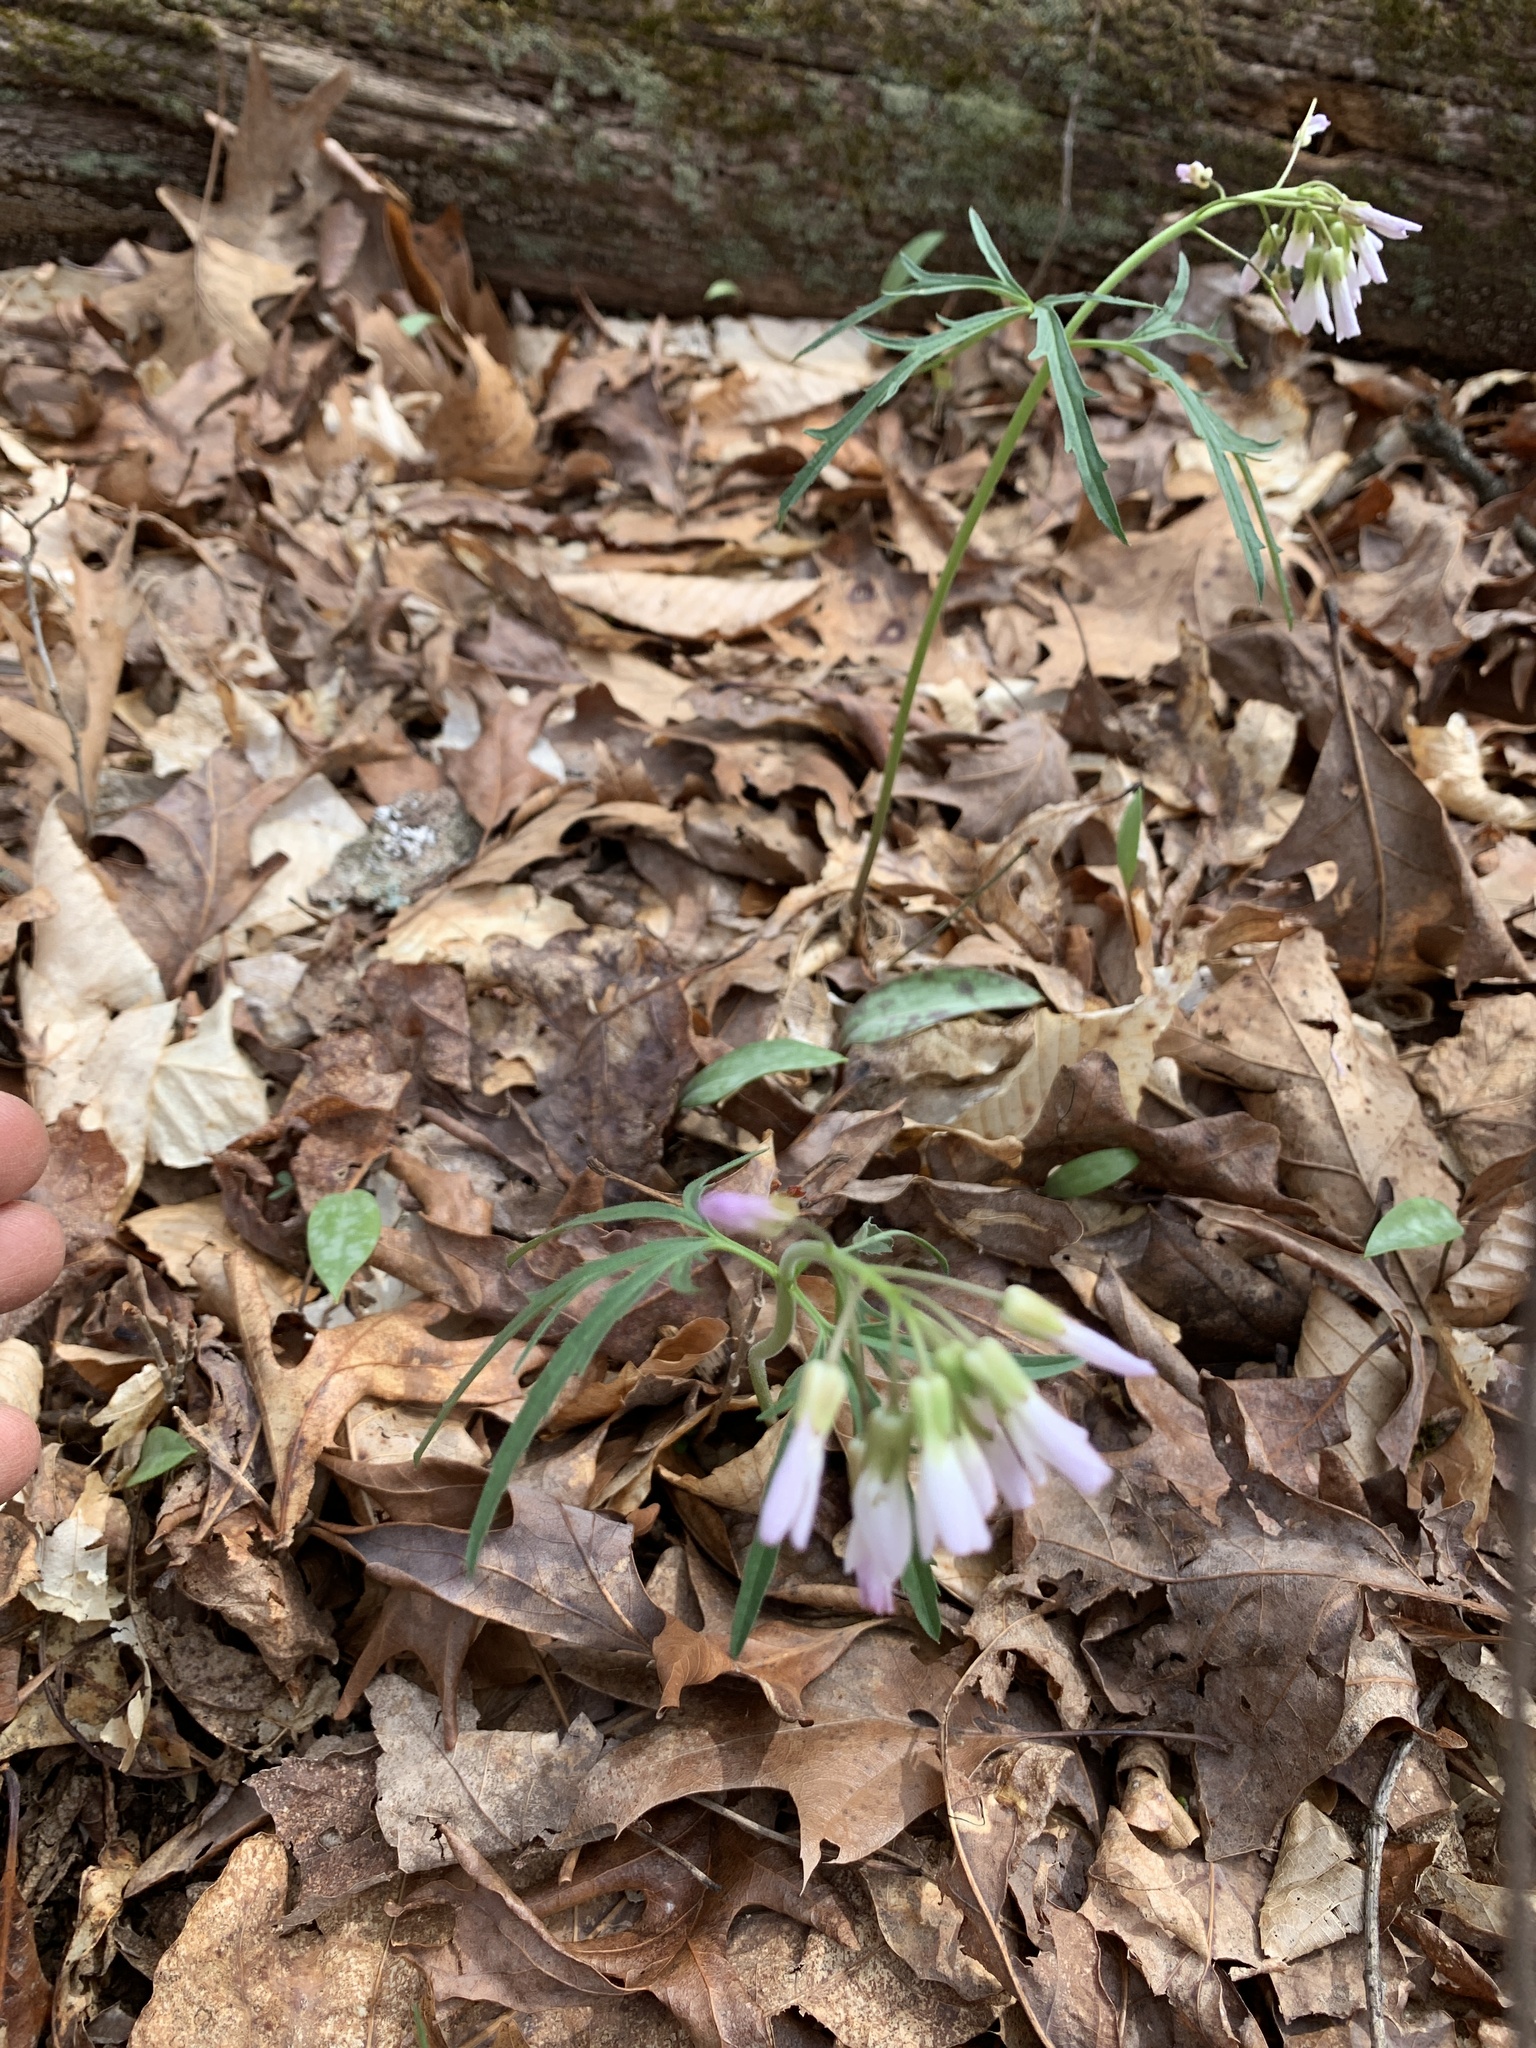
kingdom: Plantae
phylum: Tracheophyta
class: Magnoliopsida
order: Brassicales
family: Brassicaceae
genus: Cardamine
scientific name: Cardamine concatenata
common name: Cut-leaf toothcup
